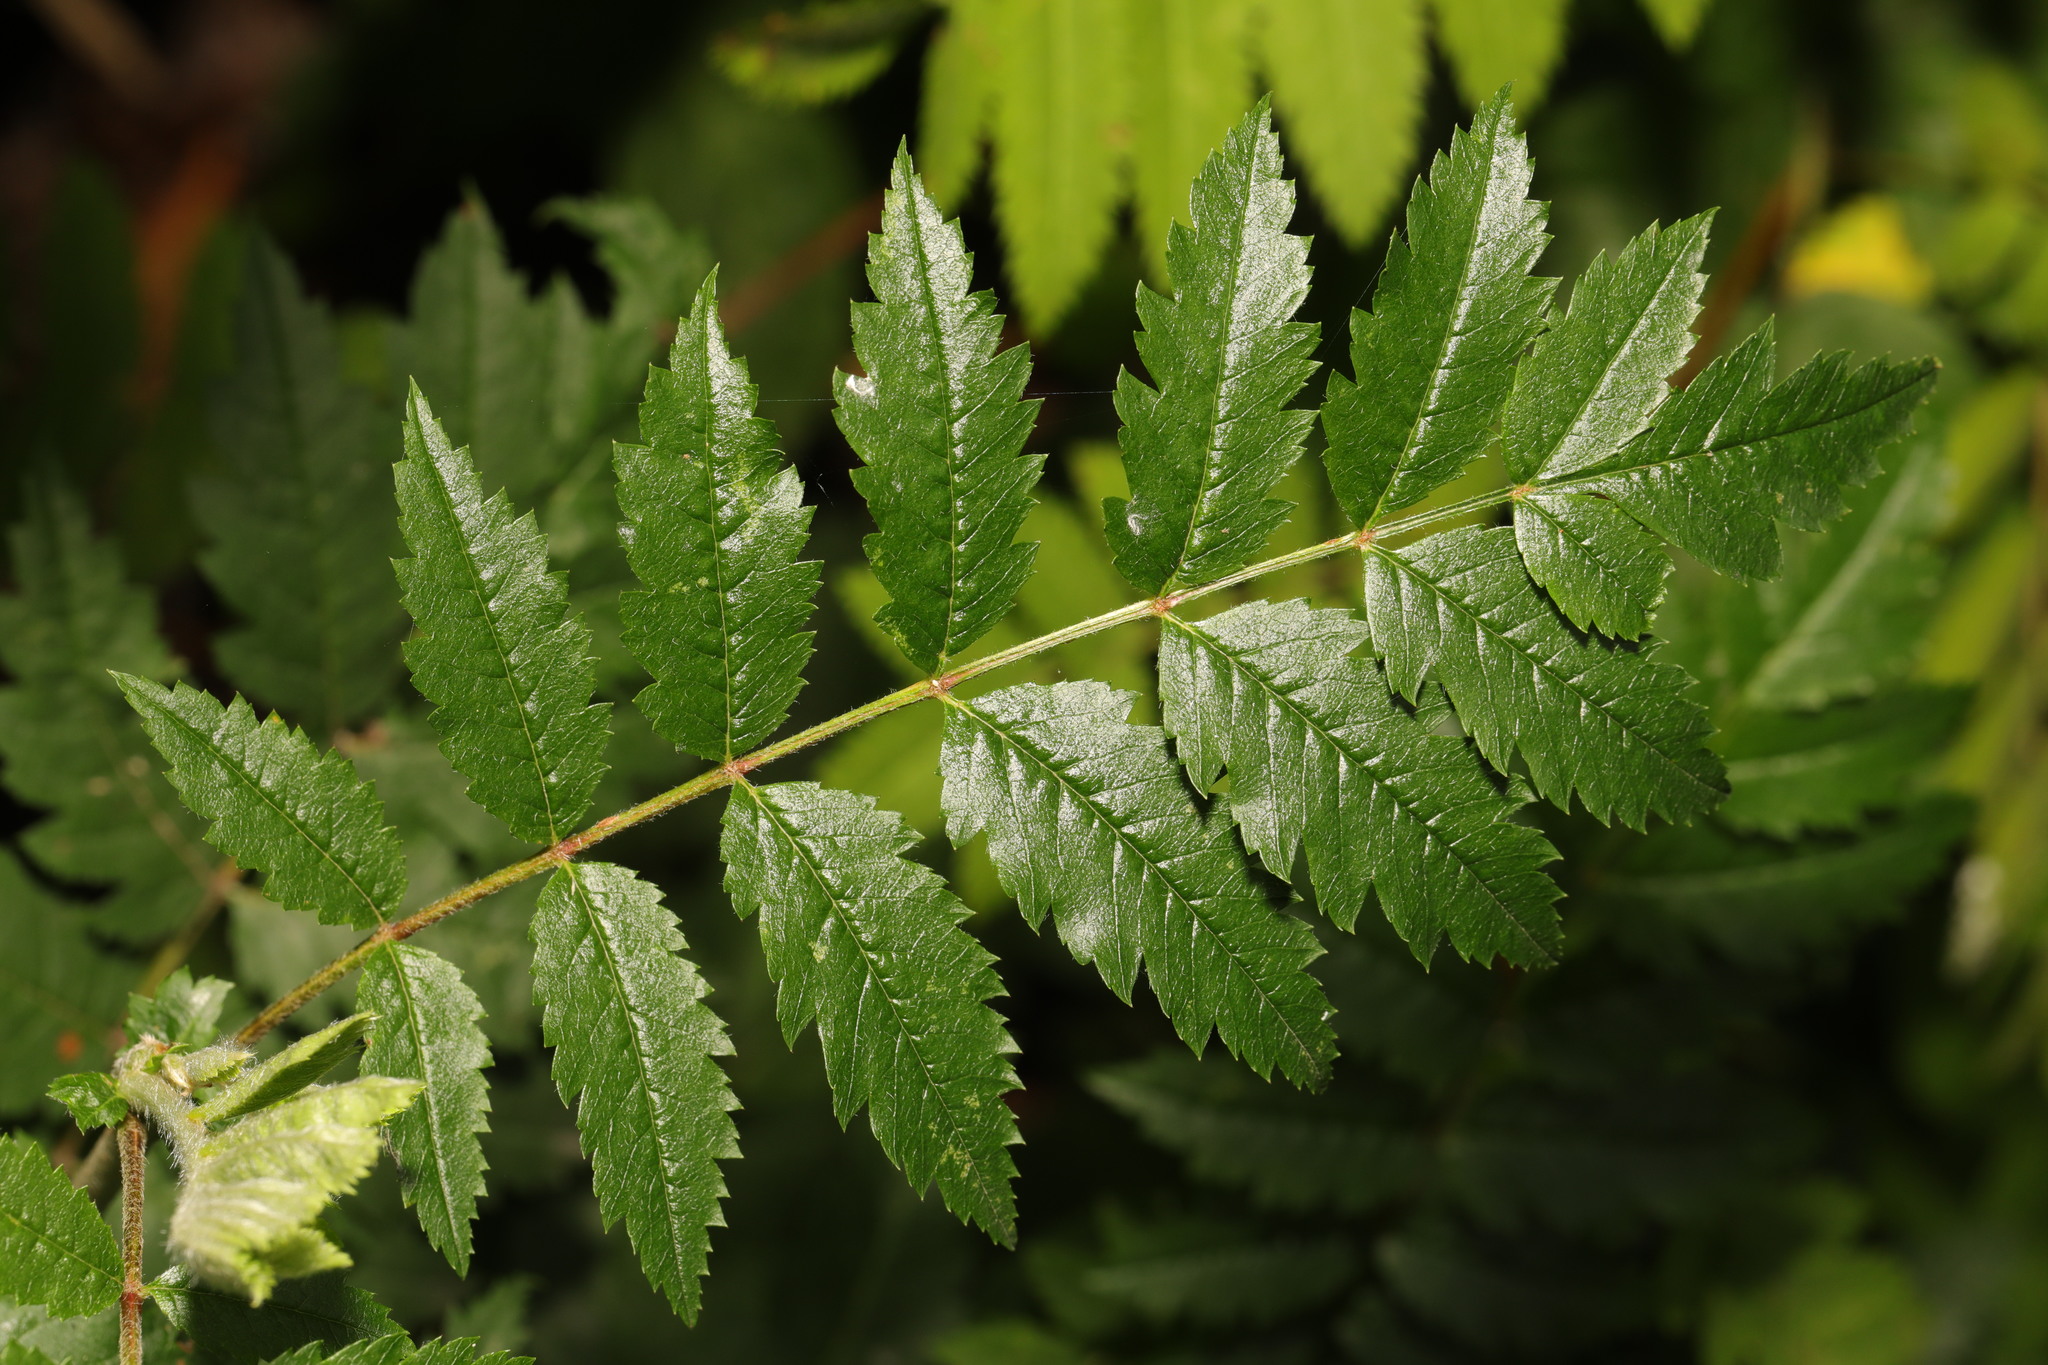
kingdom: Plantae
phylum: Tracheophyta
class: Magnoliopsida
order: Rosales
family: Rosaceae
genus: Sorbus
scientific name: Sorbus aucuparia
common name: Rowan
